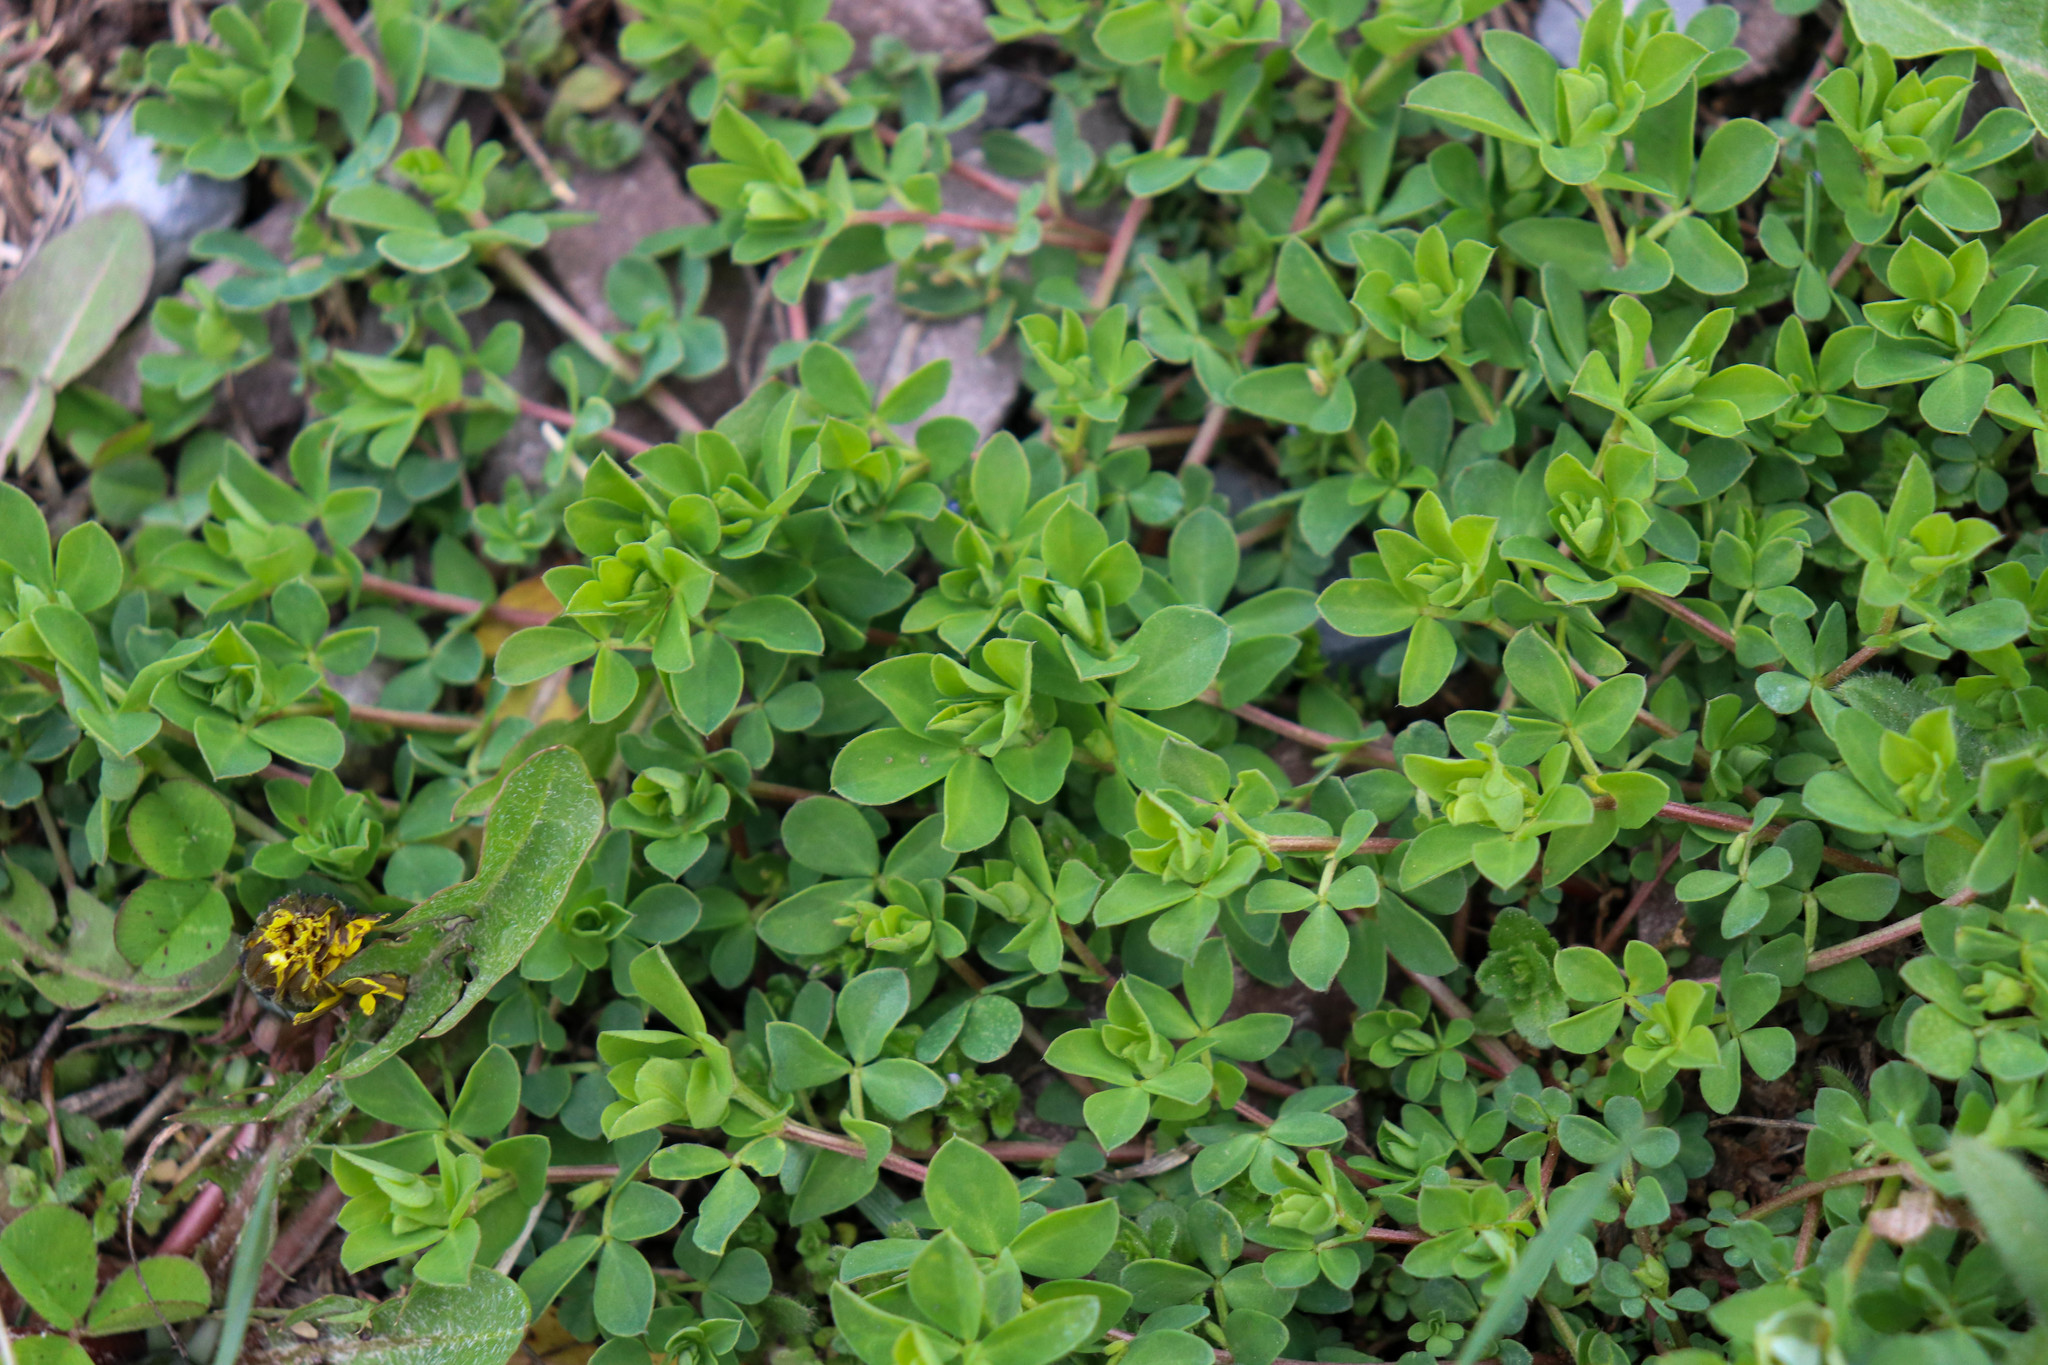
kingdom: Plantae
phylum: Tracheophyta
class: Magnoliopsida
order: Fabales
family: Fabaceae
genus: Lotus
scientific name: Lotus corniculatus
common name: Common bird's-foot-trefoil
